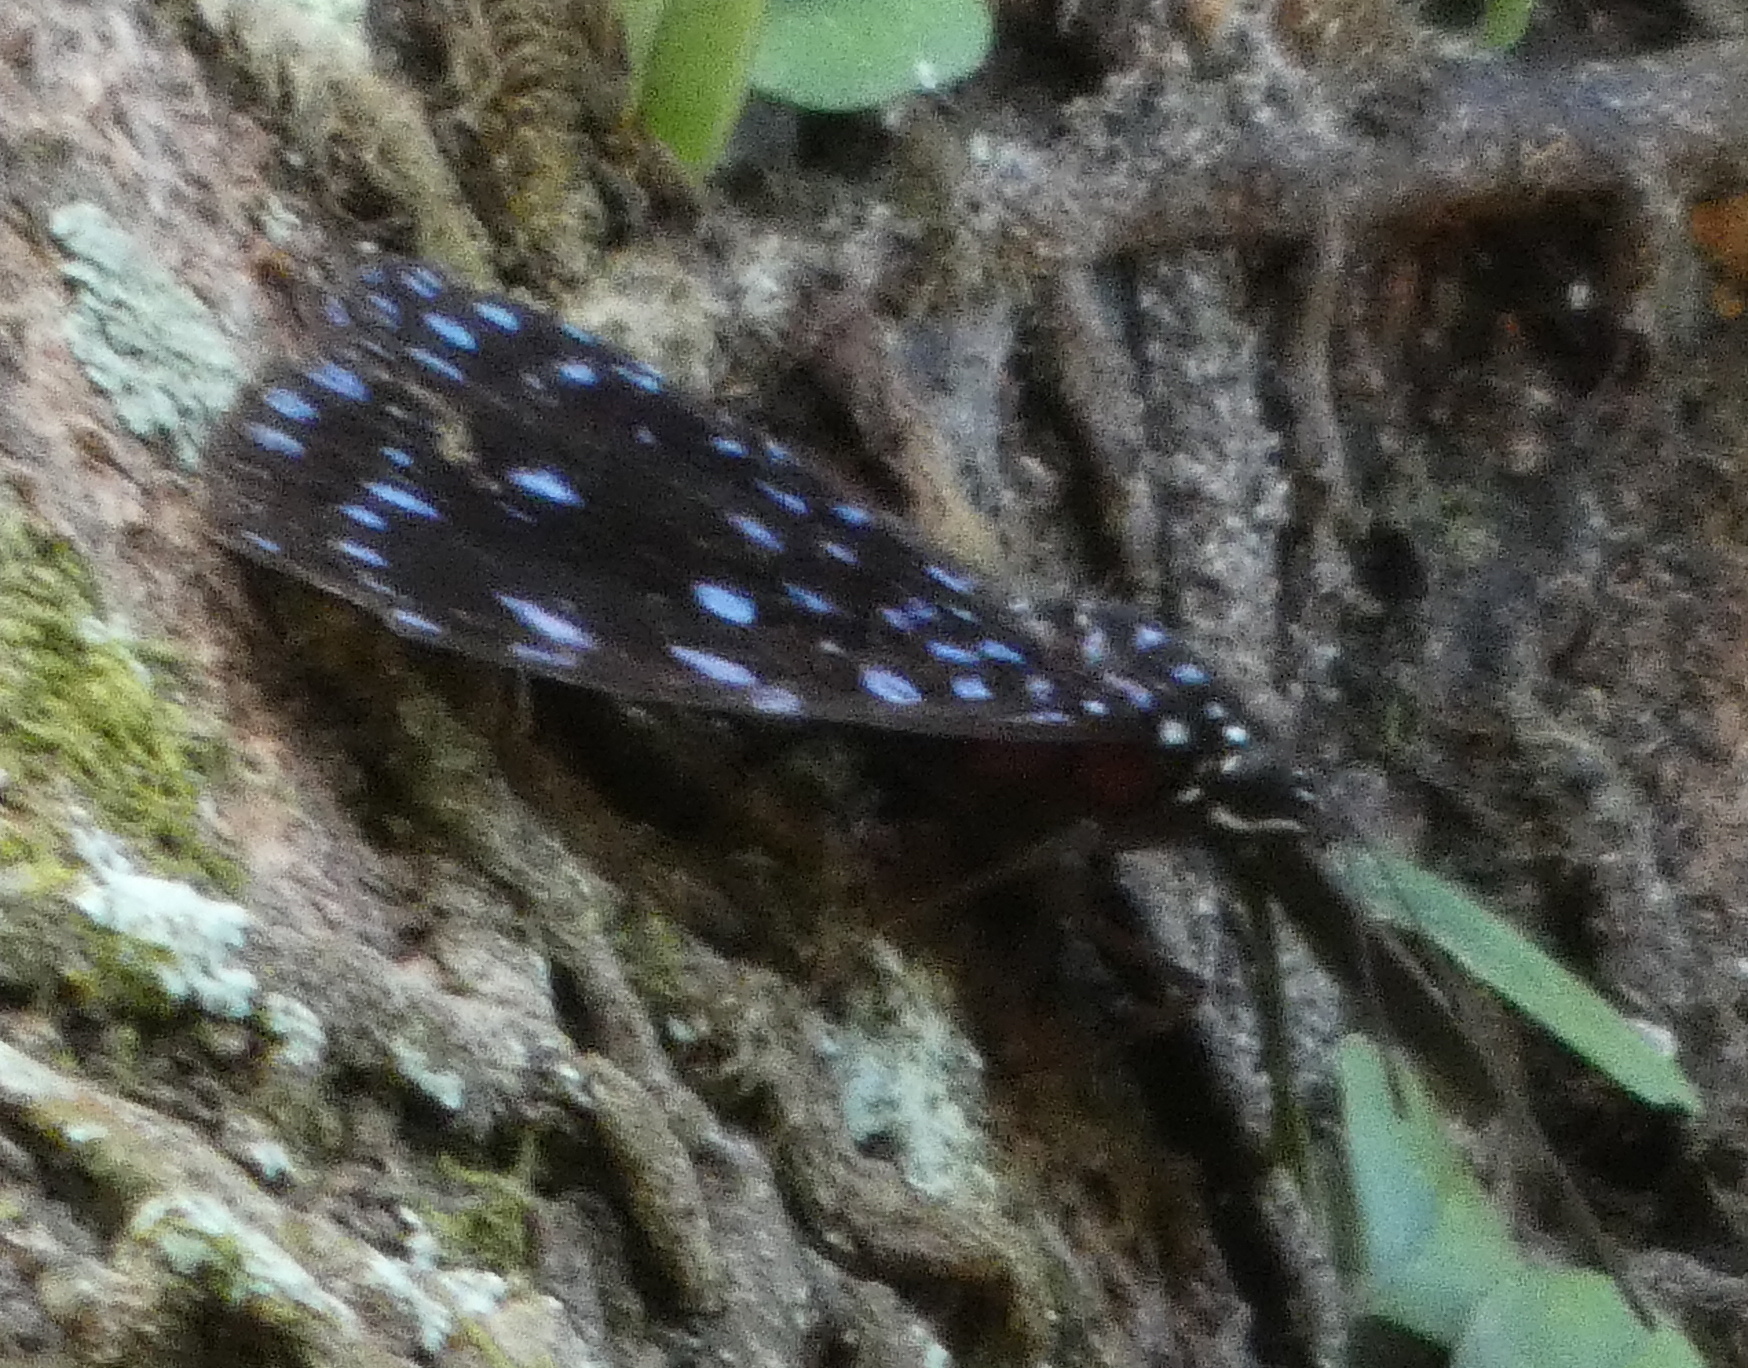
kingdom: Animalia
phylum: Arthropoda
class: Insecta
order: Lepidoptera
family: Nymphalidae
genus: Hamadryas
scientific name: Hamadryas laodamia
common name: Starry night cracker
